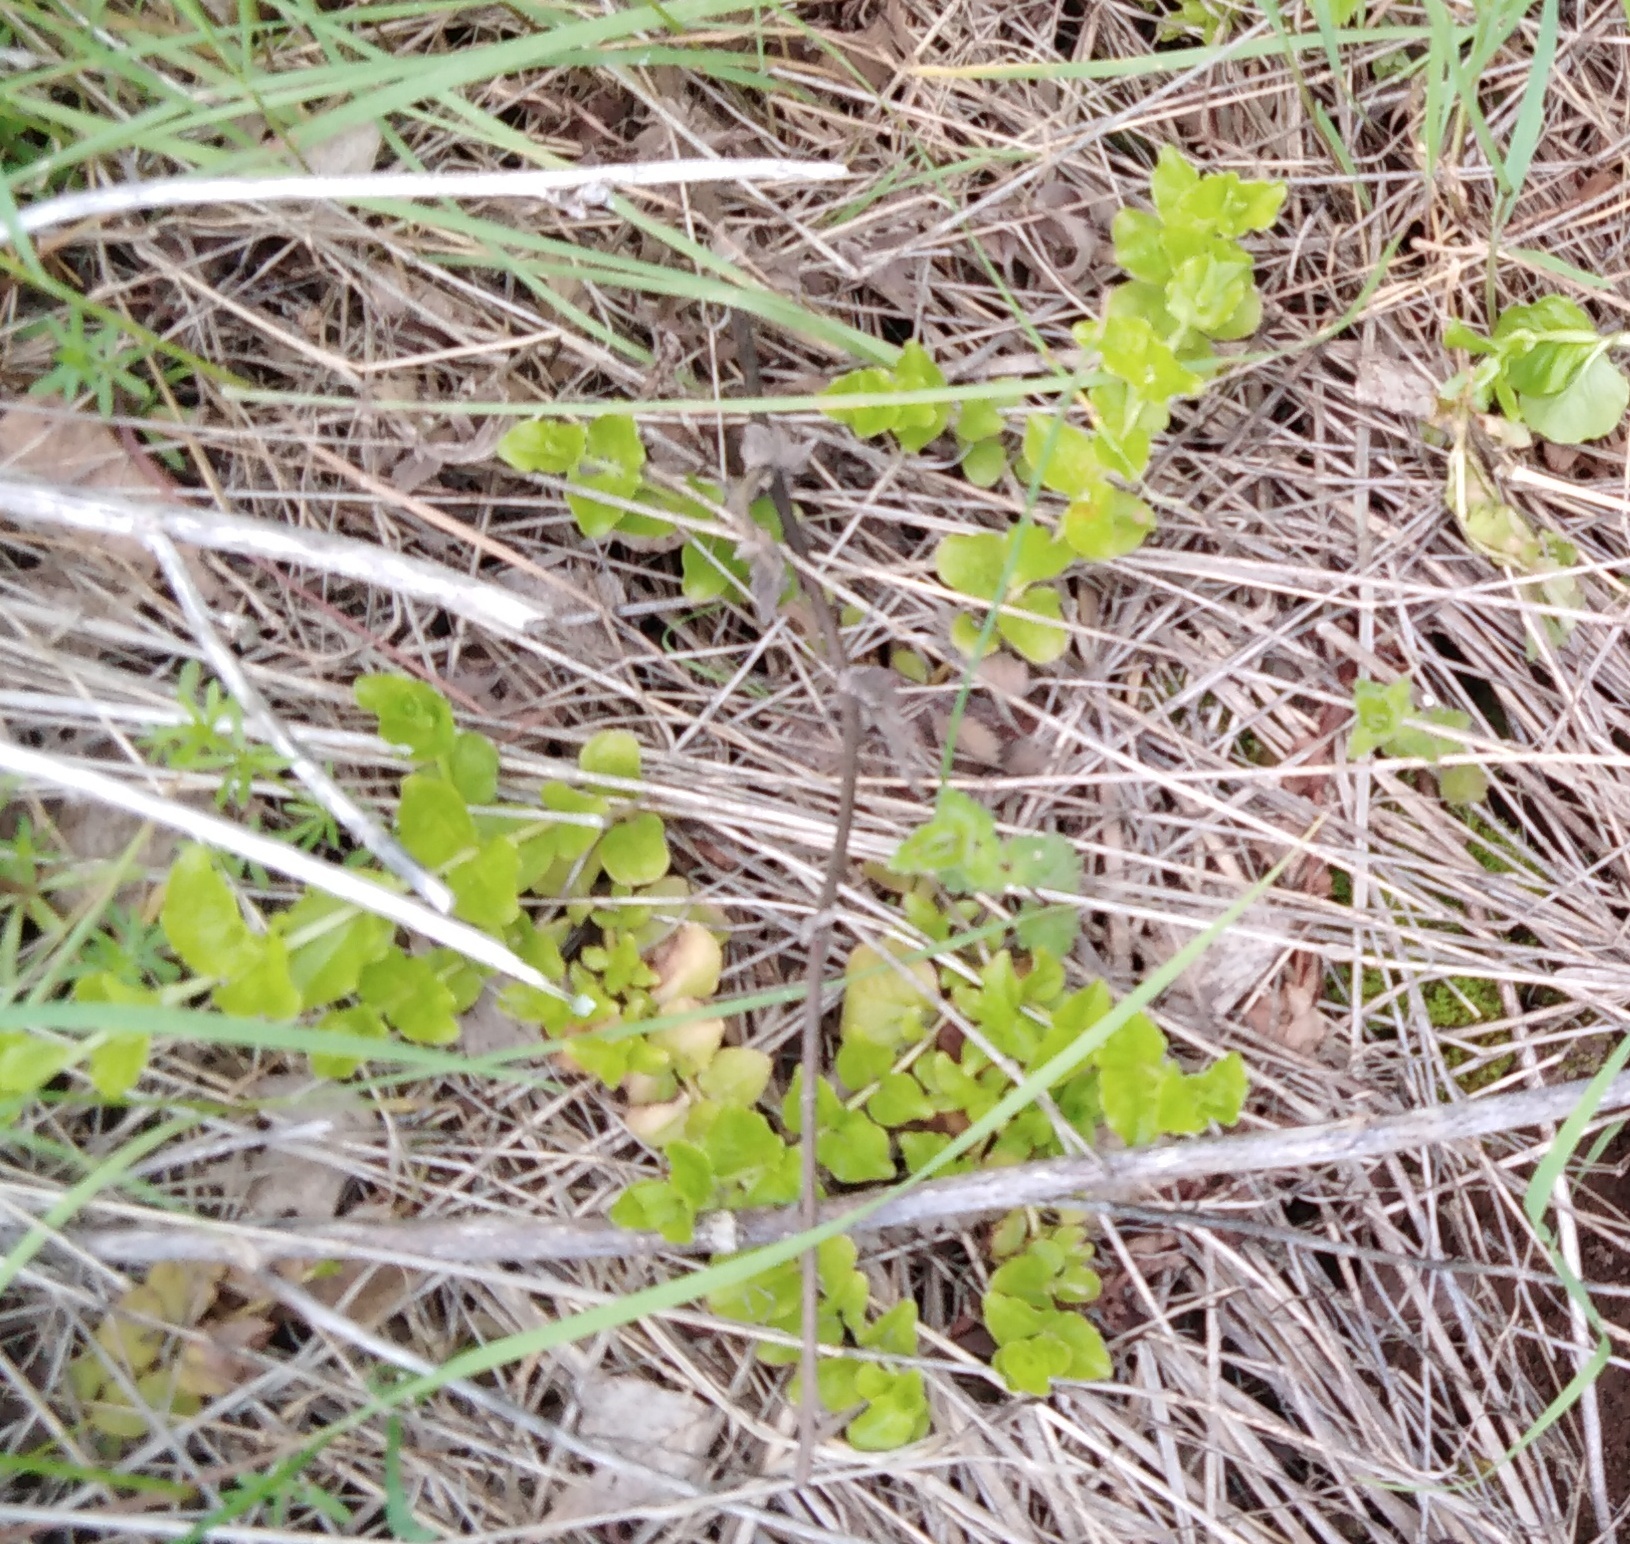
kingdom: Plantae
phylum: Tracheophyta
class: Magnoliopsida
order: Ericales
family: Primulaceae
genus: Lysimachia
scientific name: Lysimachia nummularia
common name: Moneywort
